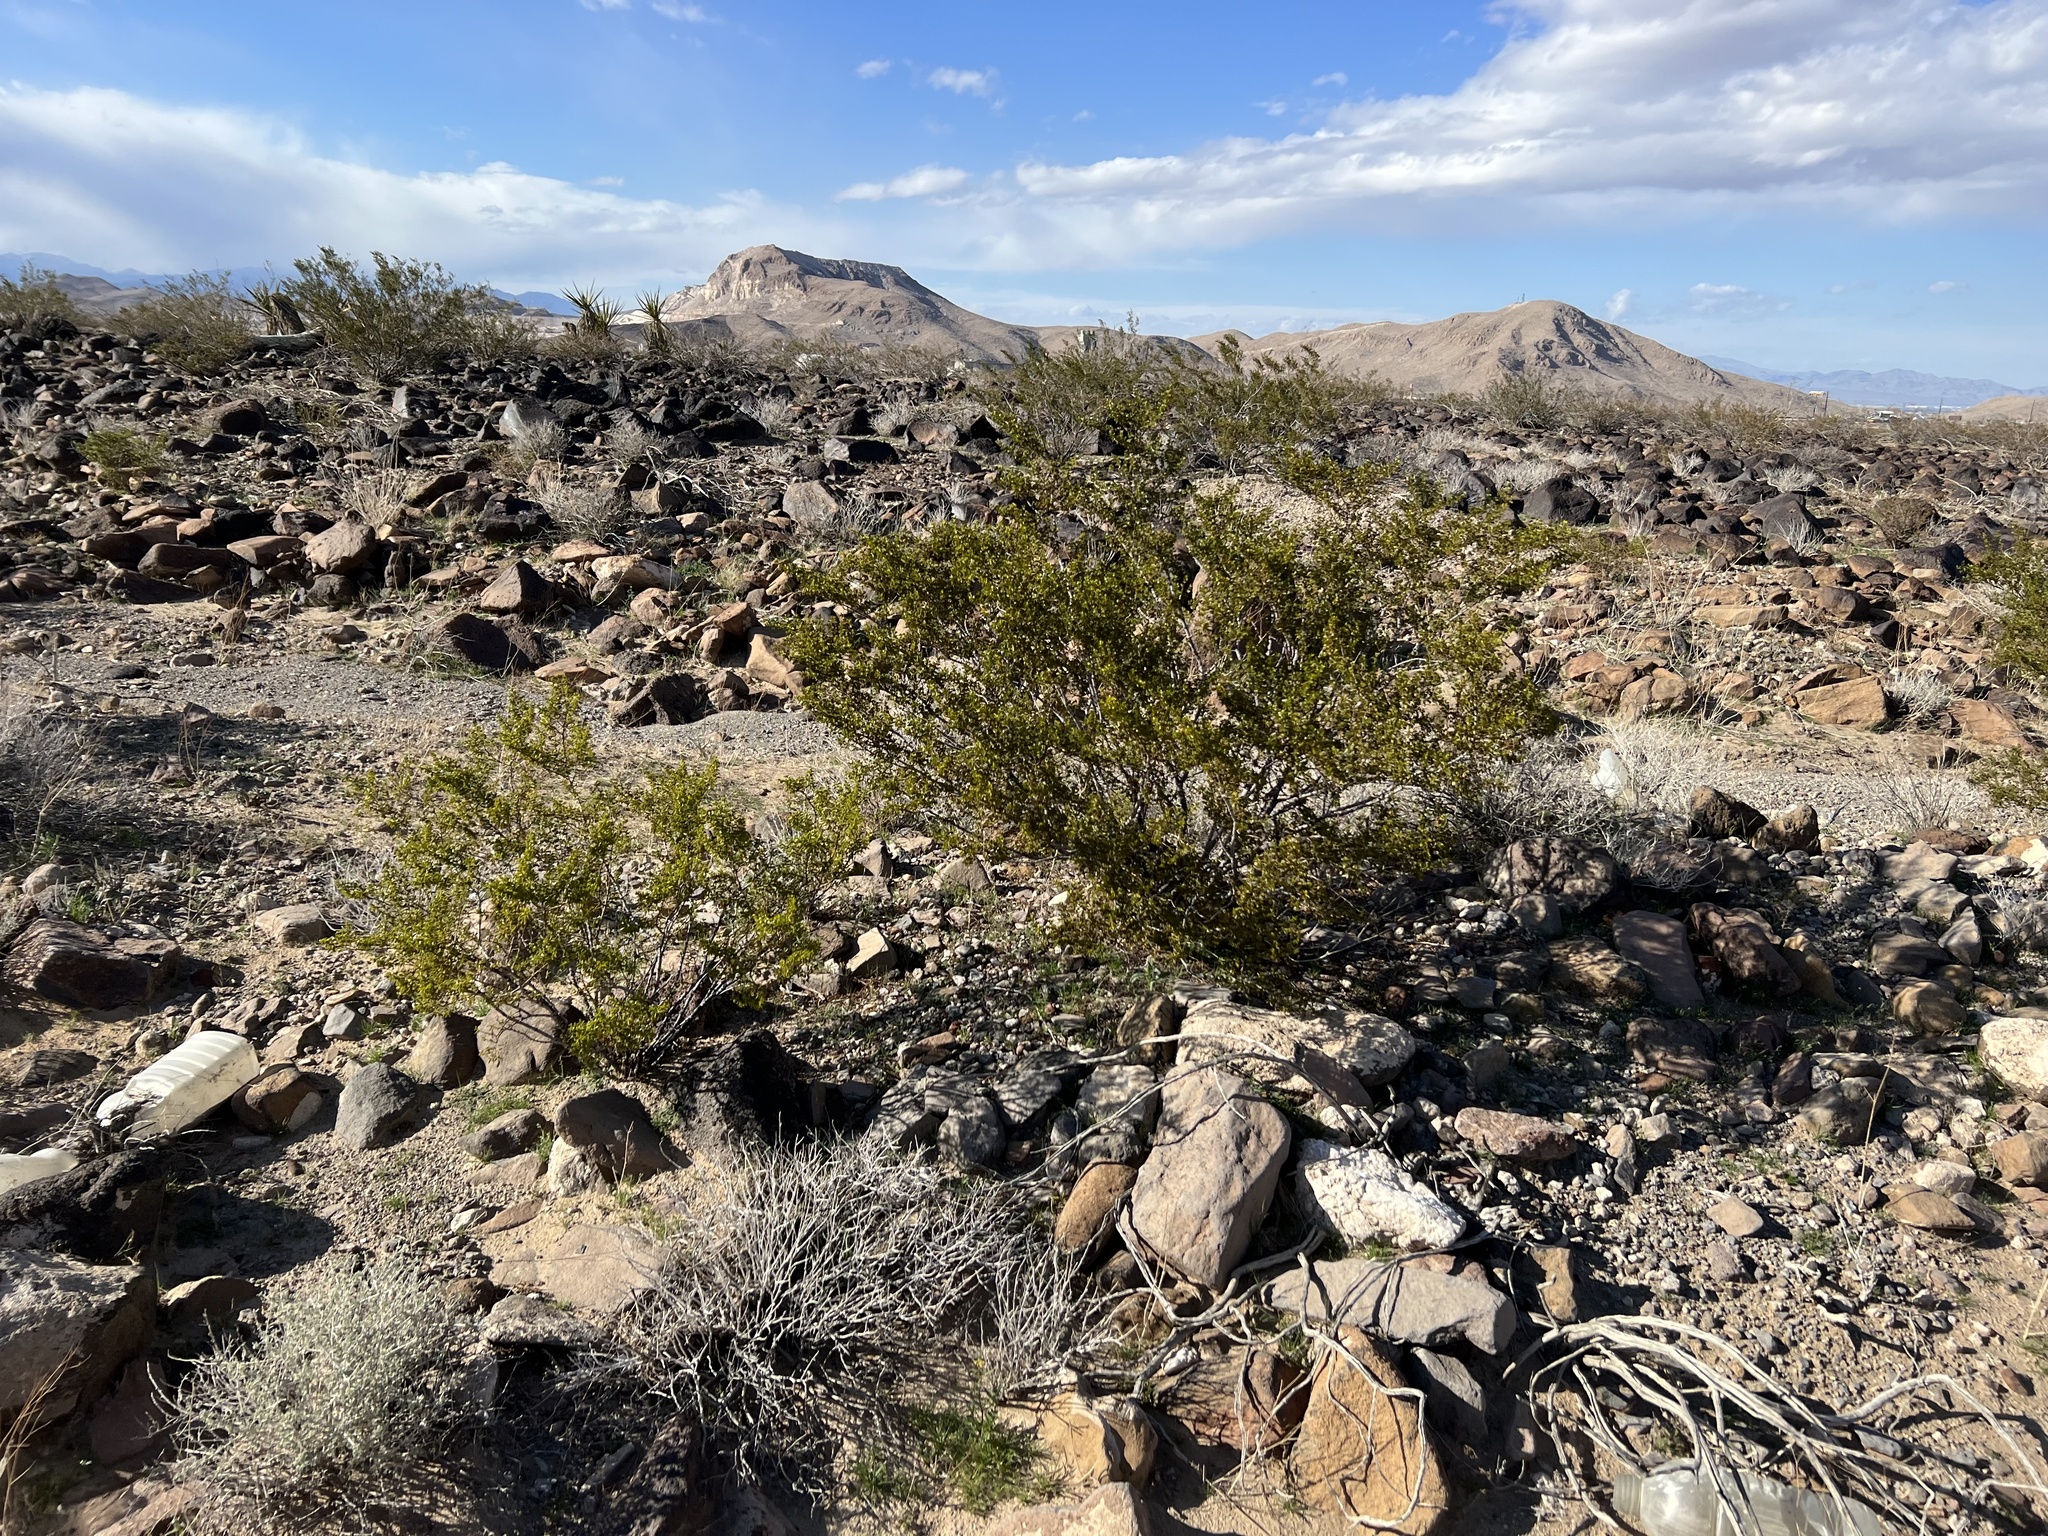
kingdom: Plantae
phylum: Tracheophyta
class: Magnoliopsida
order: Zygophyllales
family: Zygophyllaceae
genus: Larrea
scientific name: Larrea tridentata
